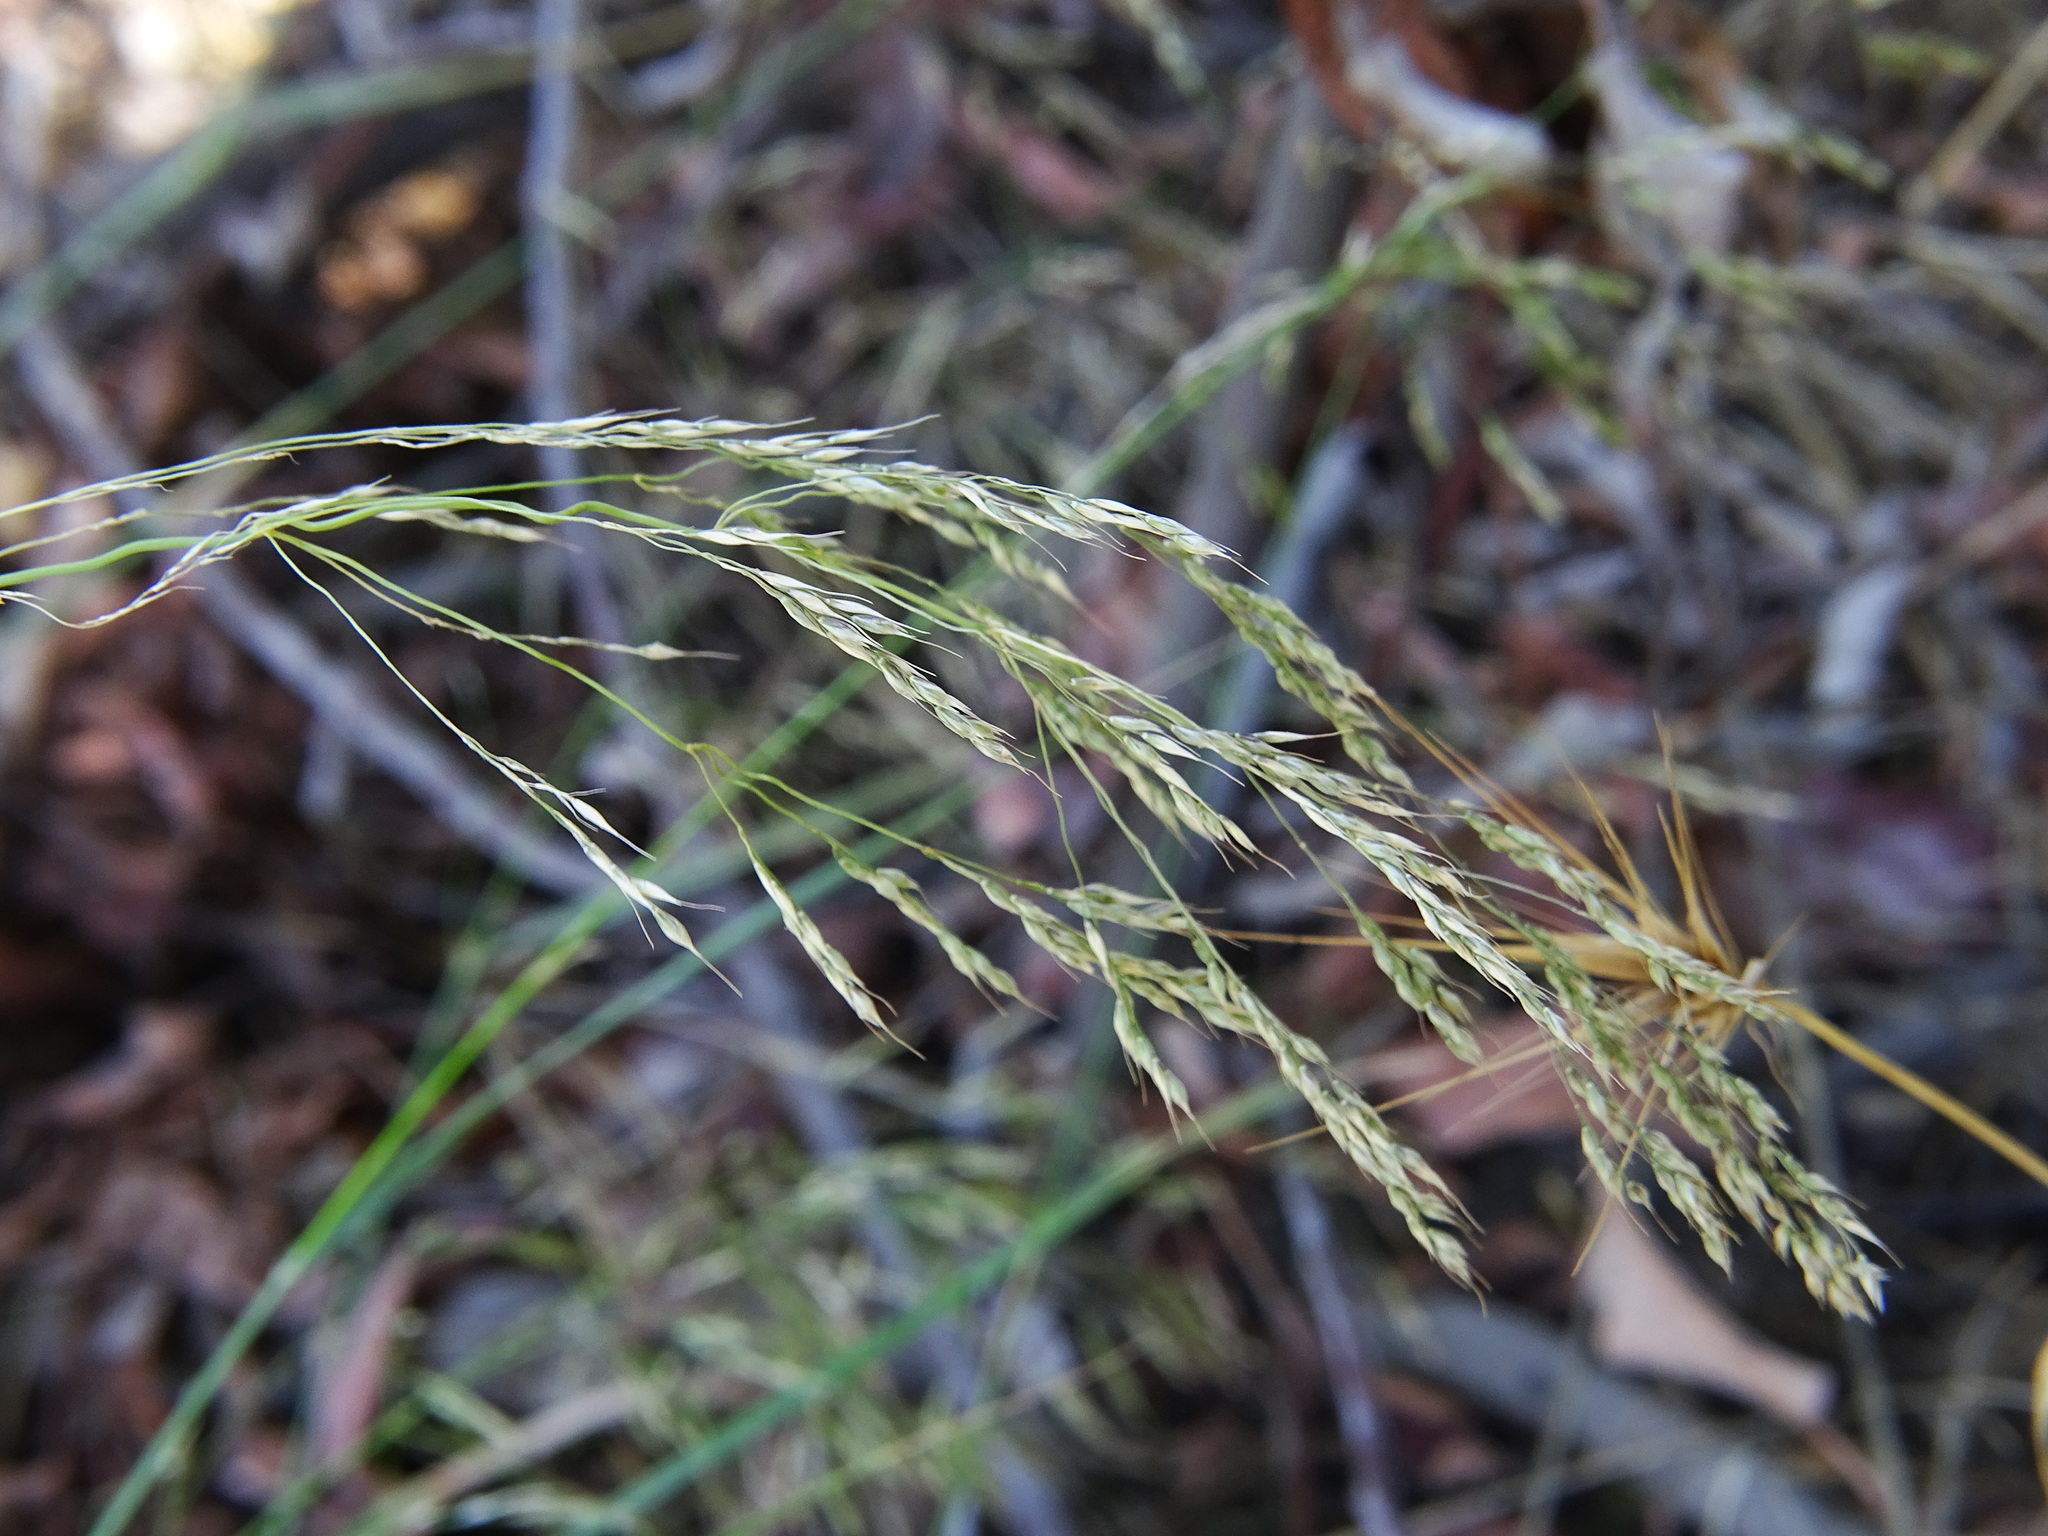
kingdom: Plantae
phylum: Tracheophyta
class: Liliopsida
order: Poales
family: Poaceae
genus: Oloptum
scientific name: Oloptum miliaceum
